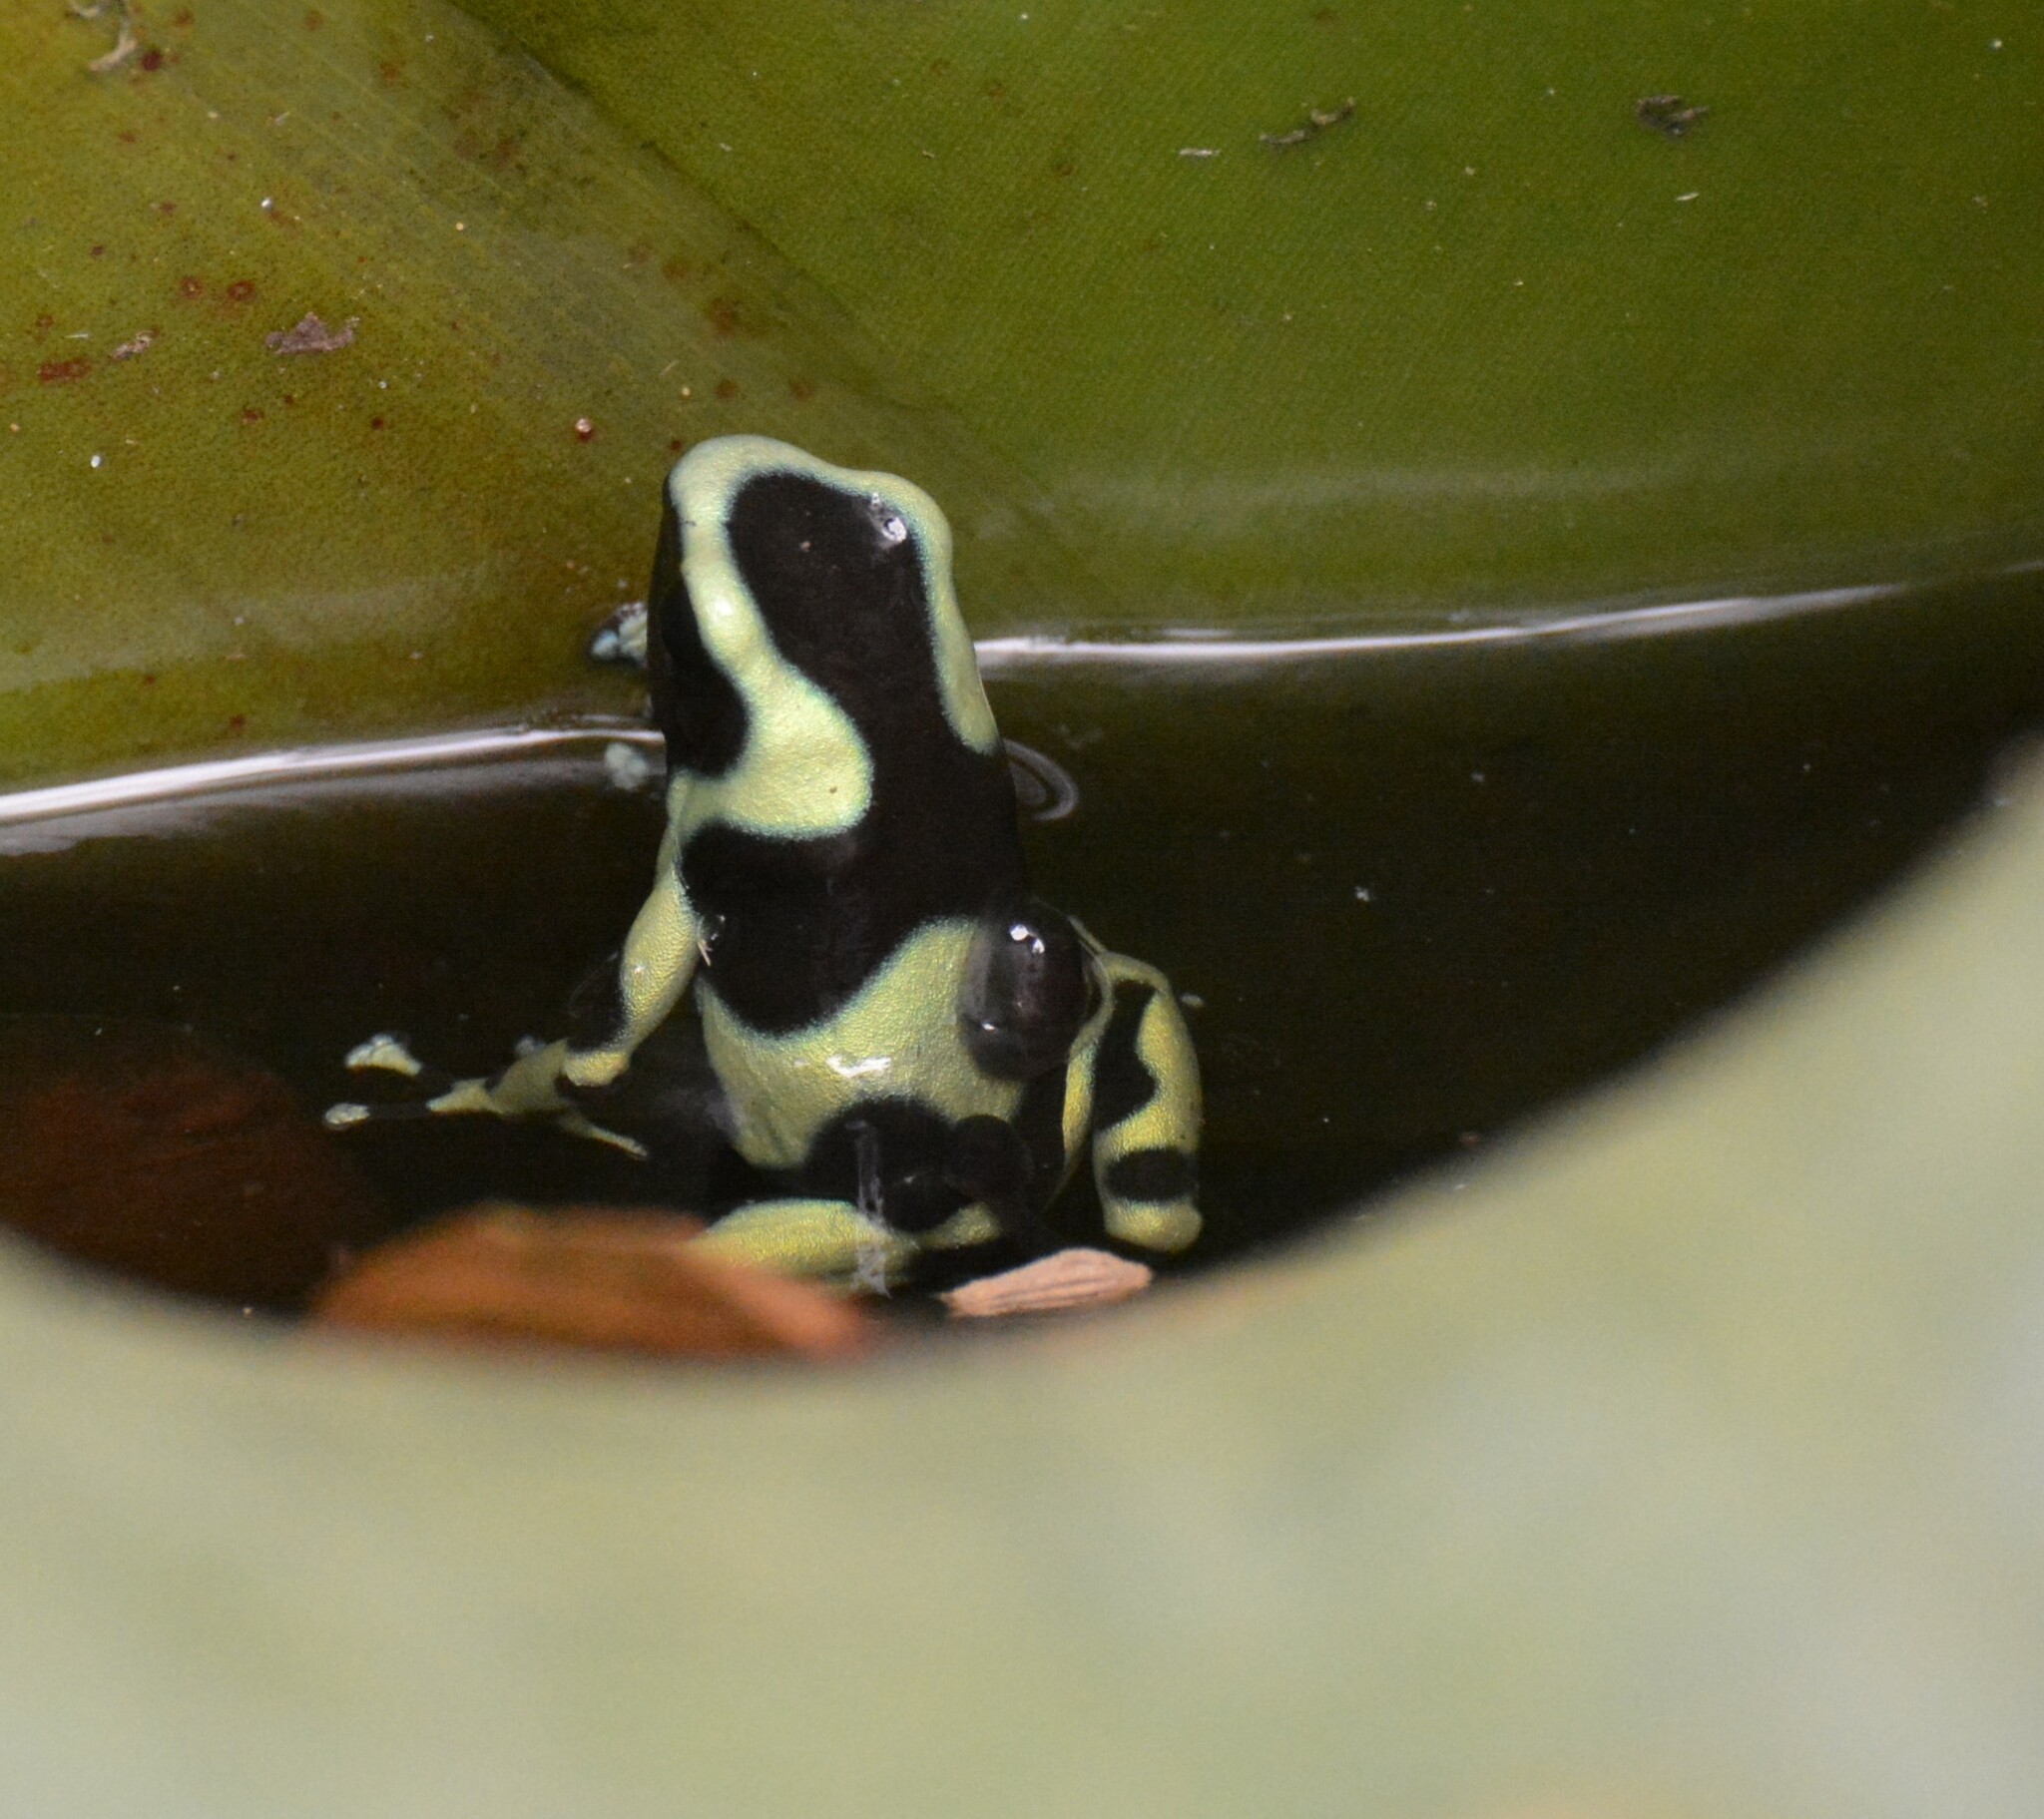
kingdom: Animalia
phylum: Chordata
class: Amphibia
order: Anura
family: Dendrobatidae
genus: Dendrobates
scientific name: Dendrobates auratus
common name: Green and black poison dart frog
